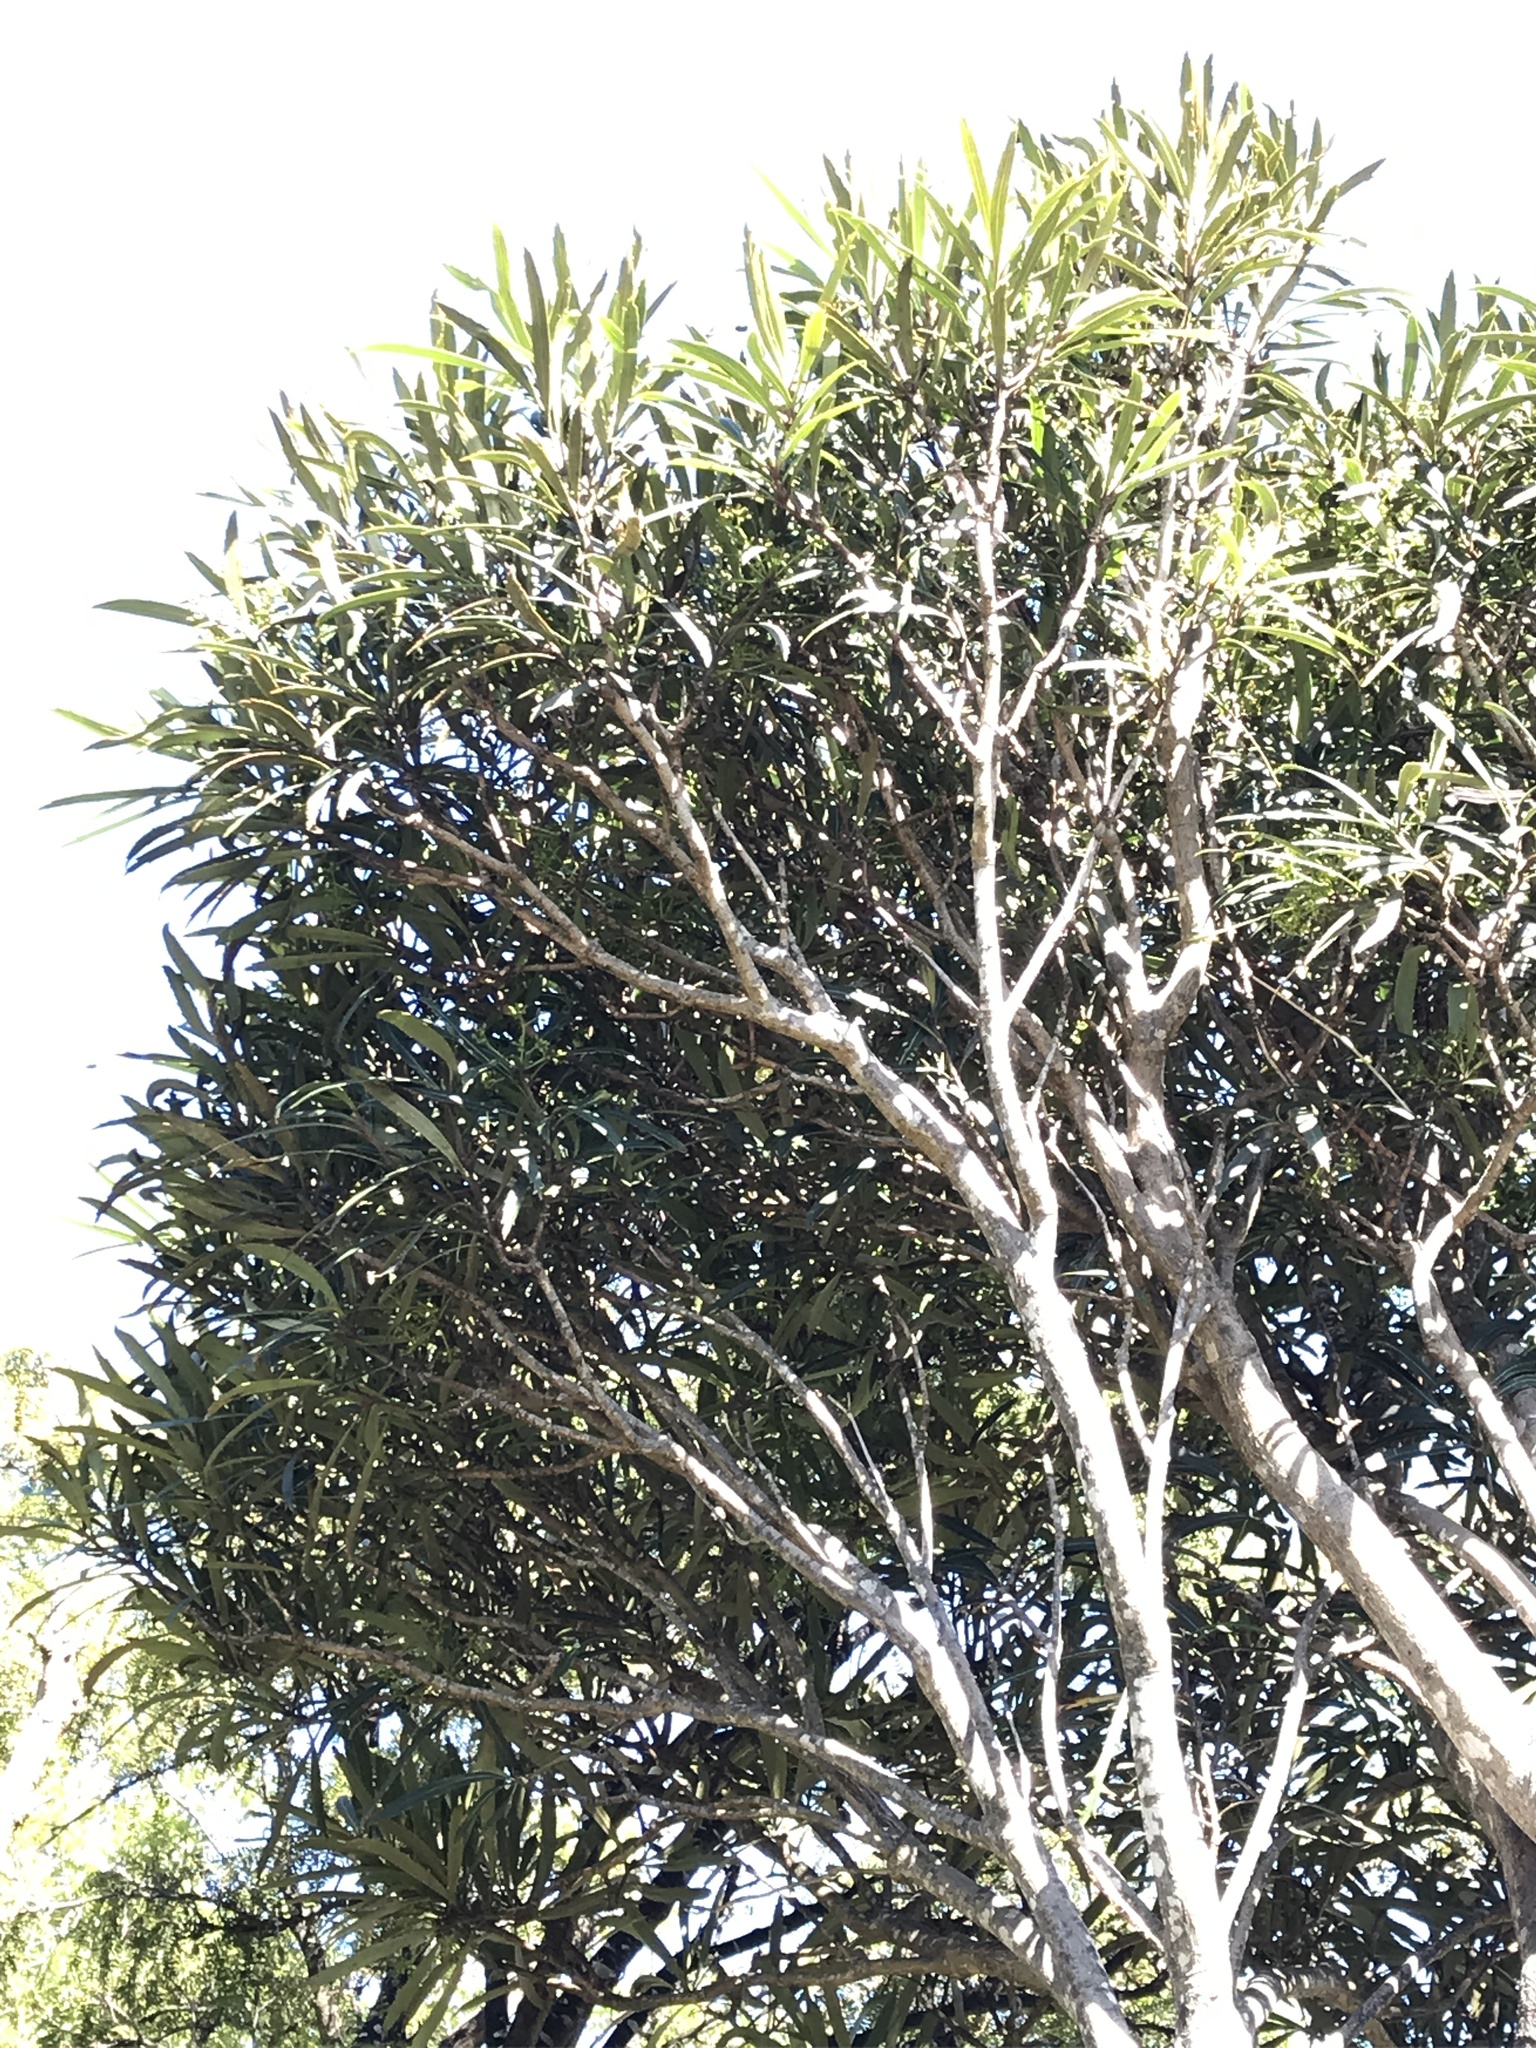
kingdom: Plantae
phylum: Tracheophyta
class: Magnoliopsida
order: Apiales
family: Araliaceae
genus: Pseudopanax
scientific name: Pseudopanax crassifolius
